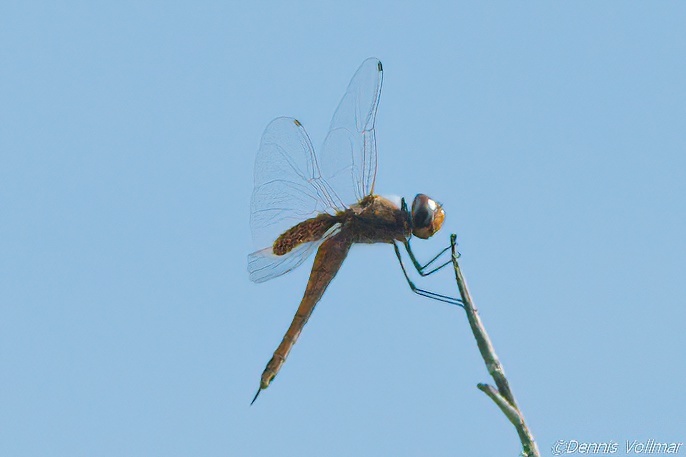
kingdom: Animalia
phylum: Arthropoda
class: Insecta
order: Odonata
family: Libellulidae
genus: Tramea
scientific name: Tramea insularis
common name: Antillean saddlebags
